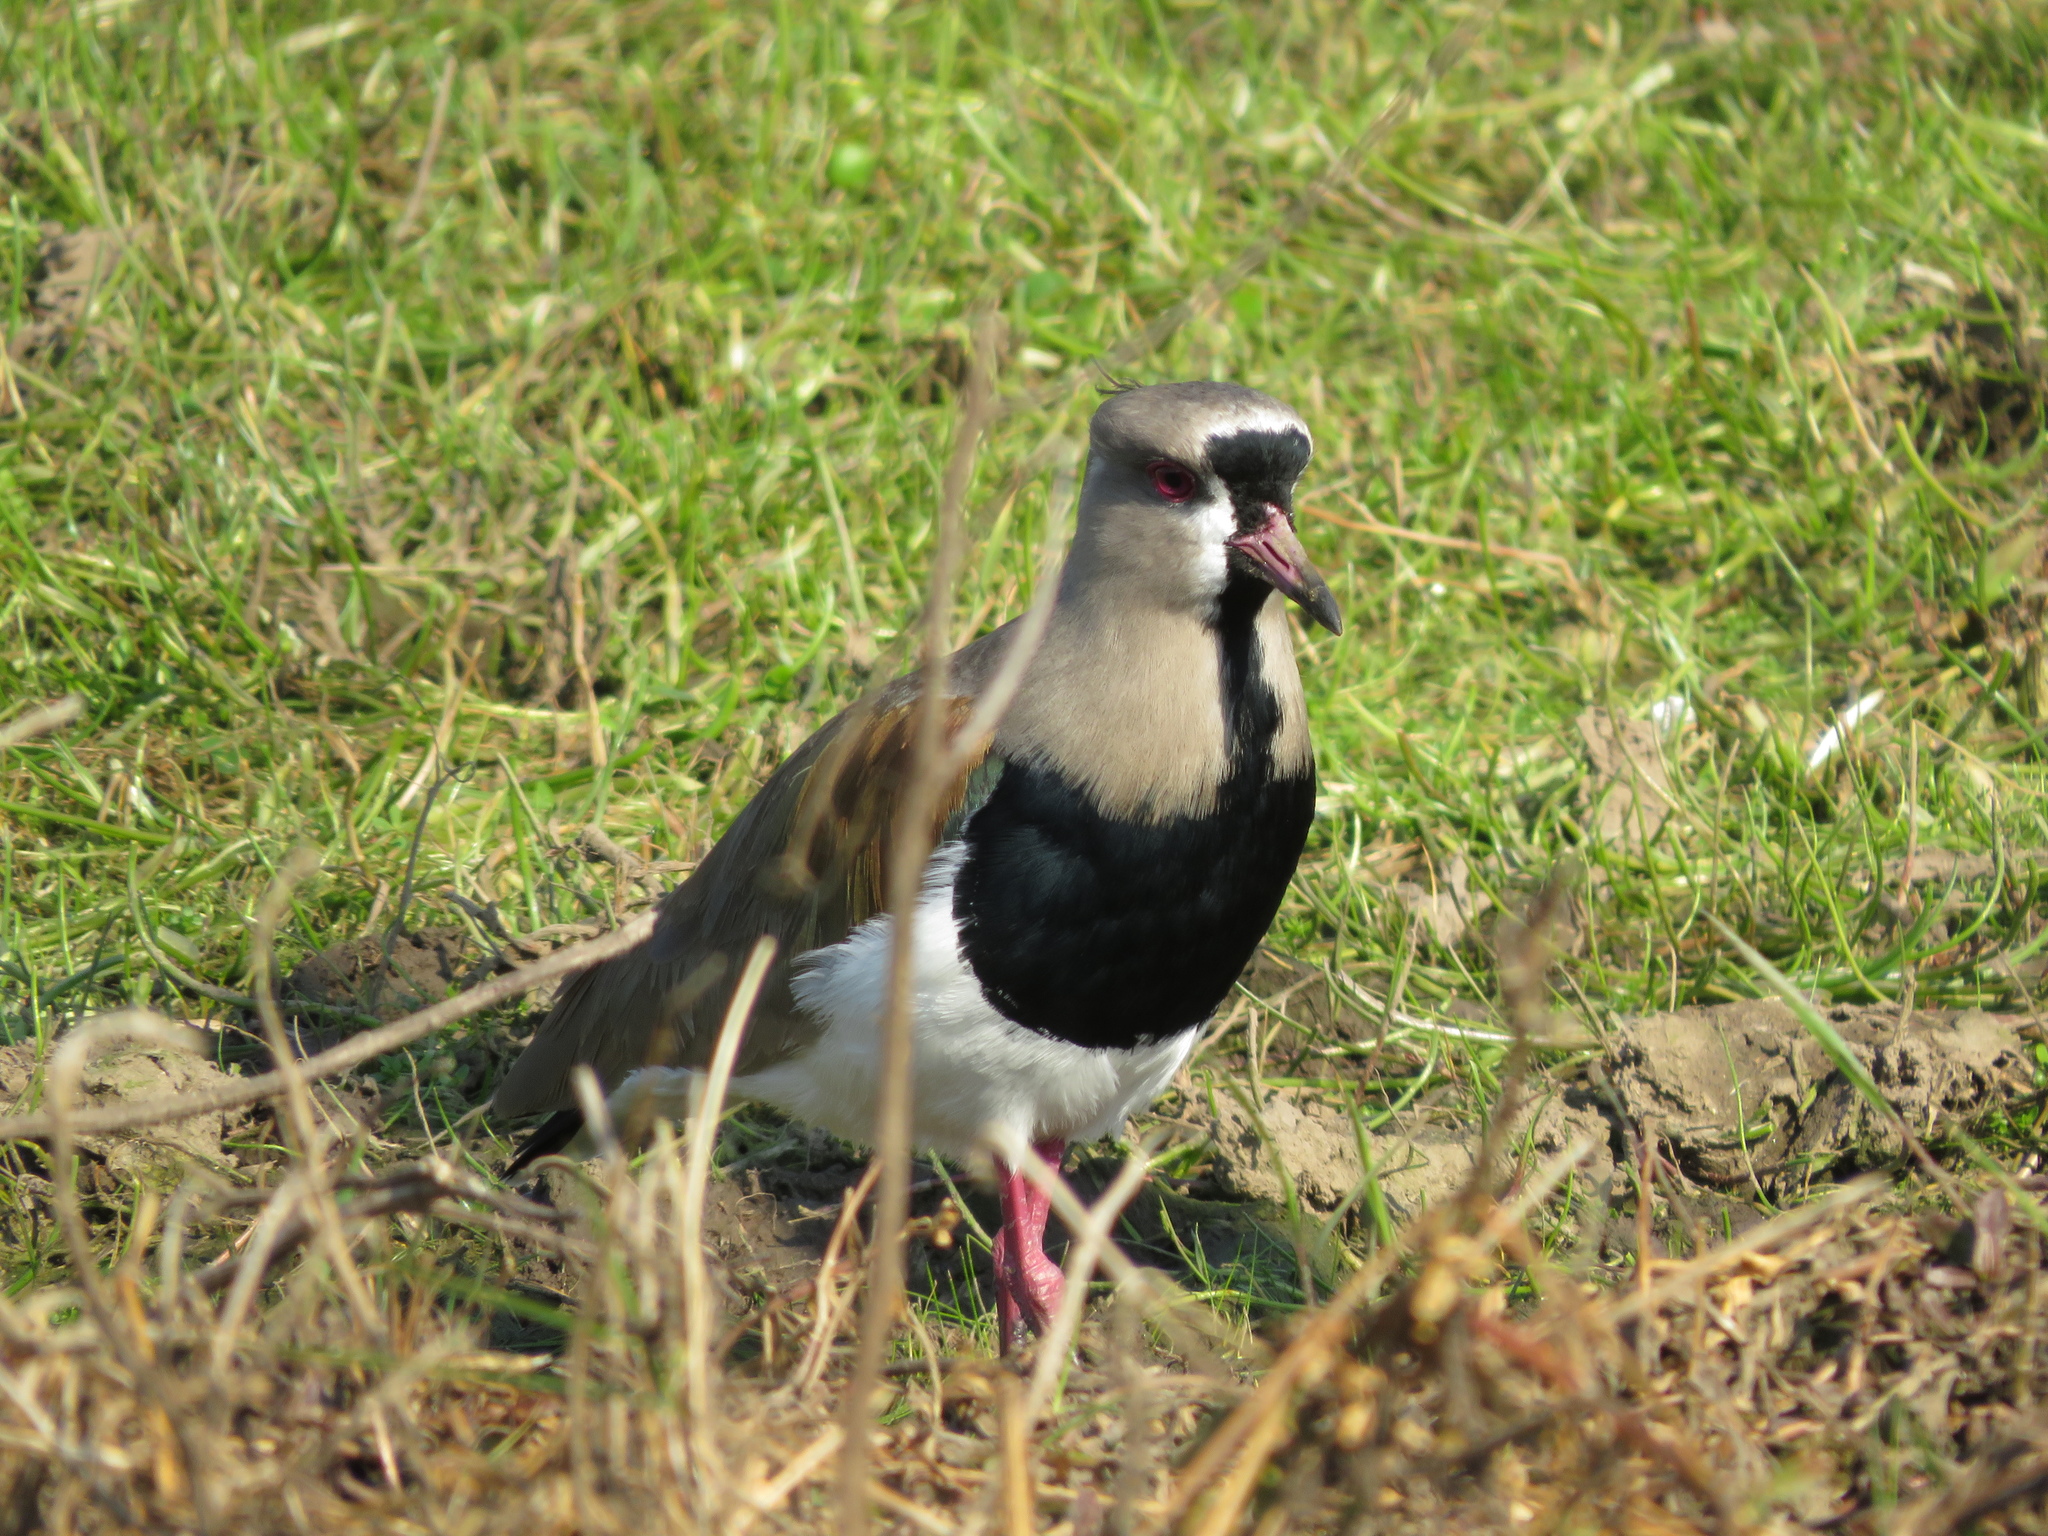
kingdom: Animalia
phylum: Chordata
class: Aves
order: Charadriiformes
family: Charadriidae
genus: Vanellus
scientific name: Vanellus chilensis
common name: Southern lapwing
